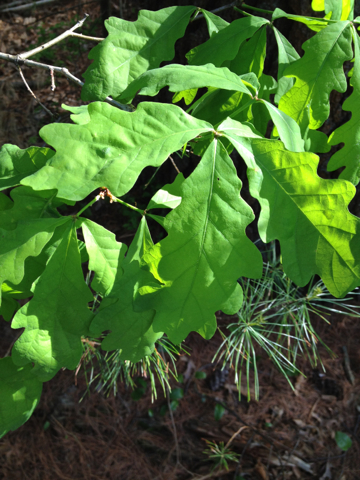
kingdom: Plantae
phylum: Tracheophyta
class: Magnoliopsida
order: Fagales
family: Fagaceae
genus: Quercus
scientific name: Quercus alba
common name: White oak
